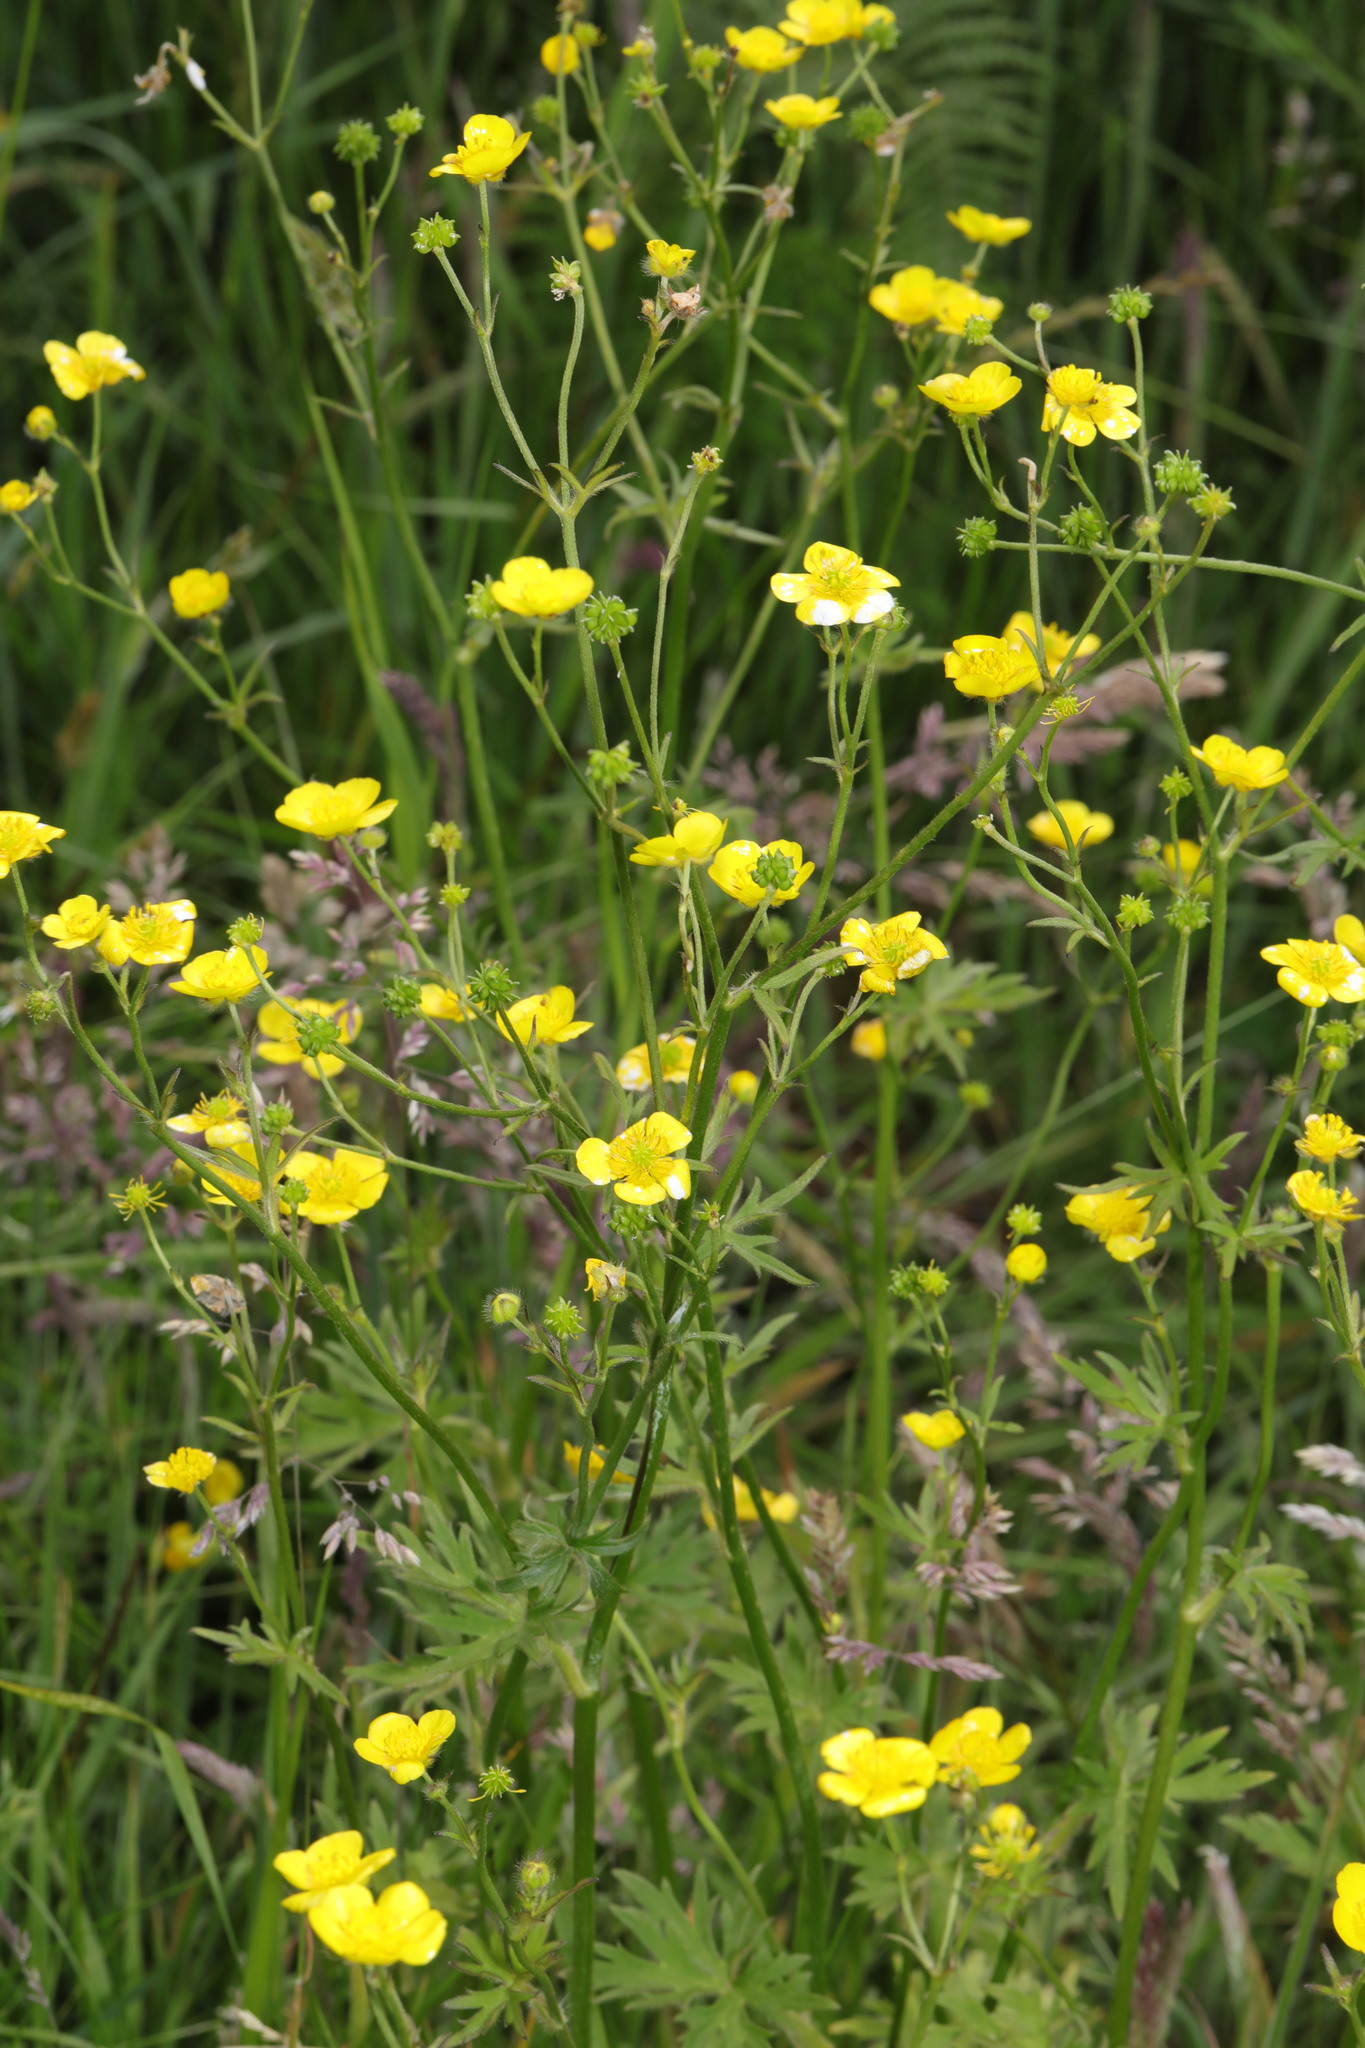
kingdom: Plantae
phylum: Tracheophyta
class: Magnoliopsida
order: Ranunculales
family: Ranunculaceae
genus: Ranunculus
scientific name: Ranunculus acris
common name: Meadow buttercup
